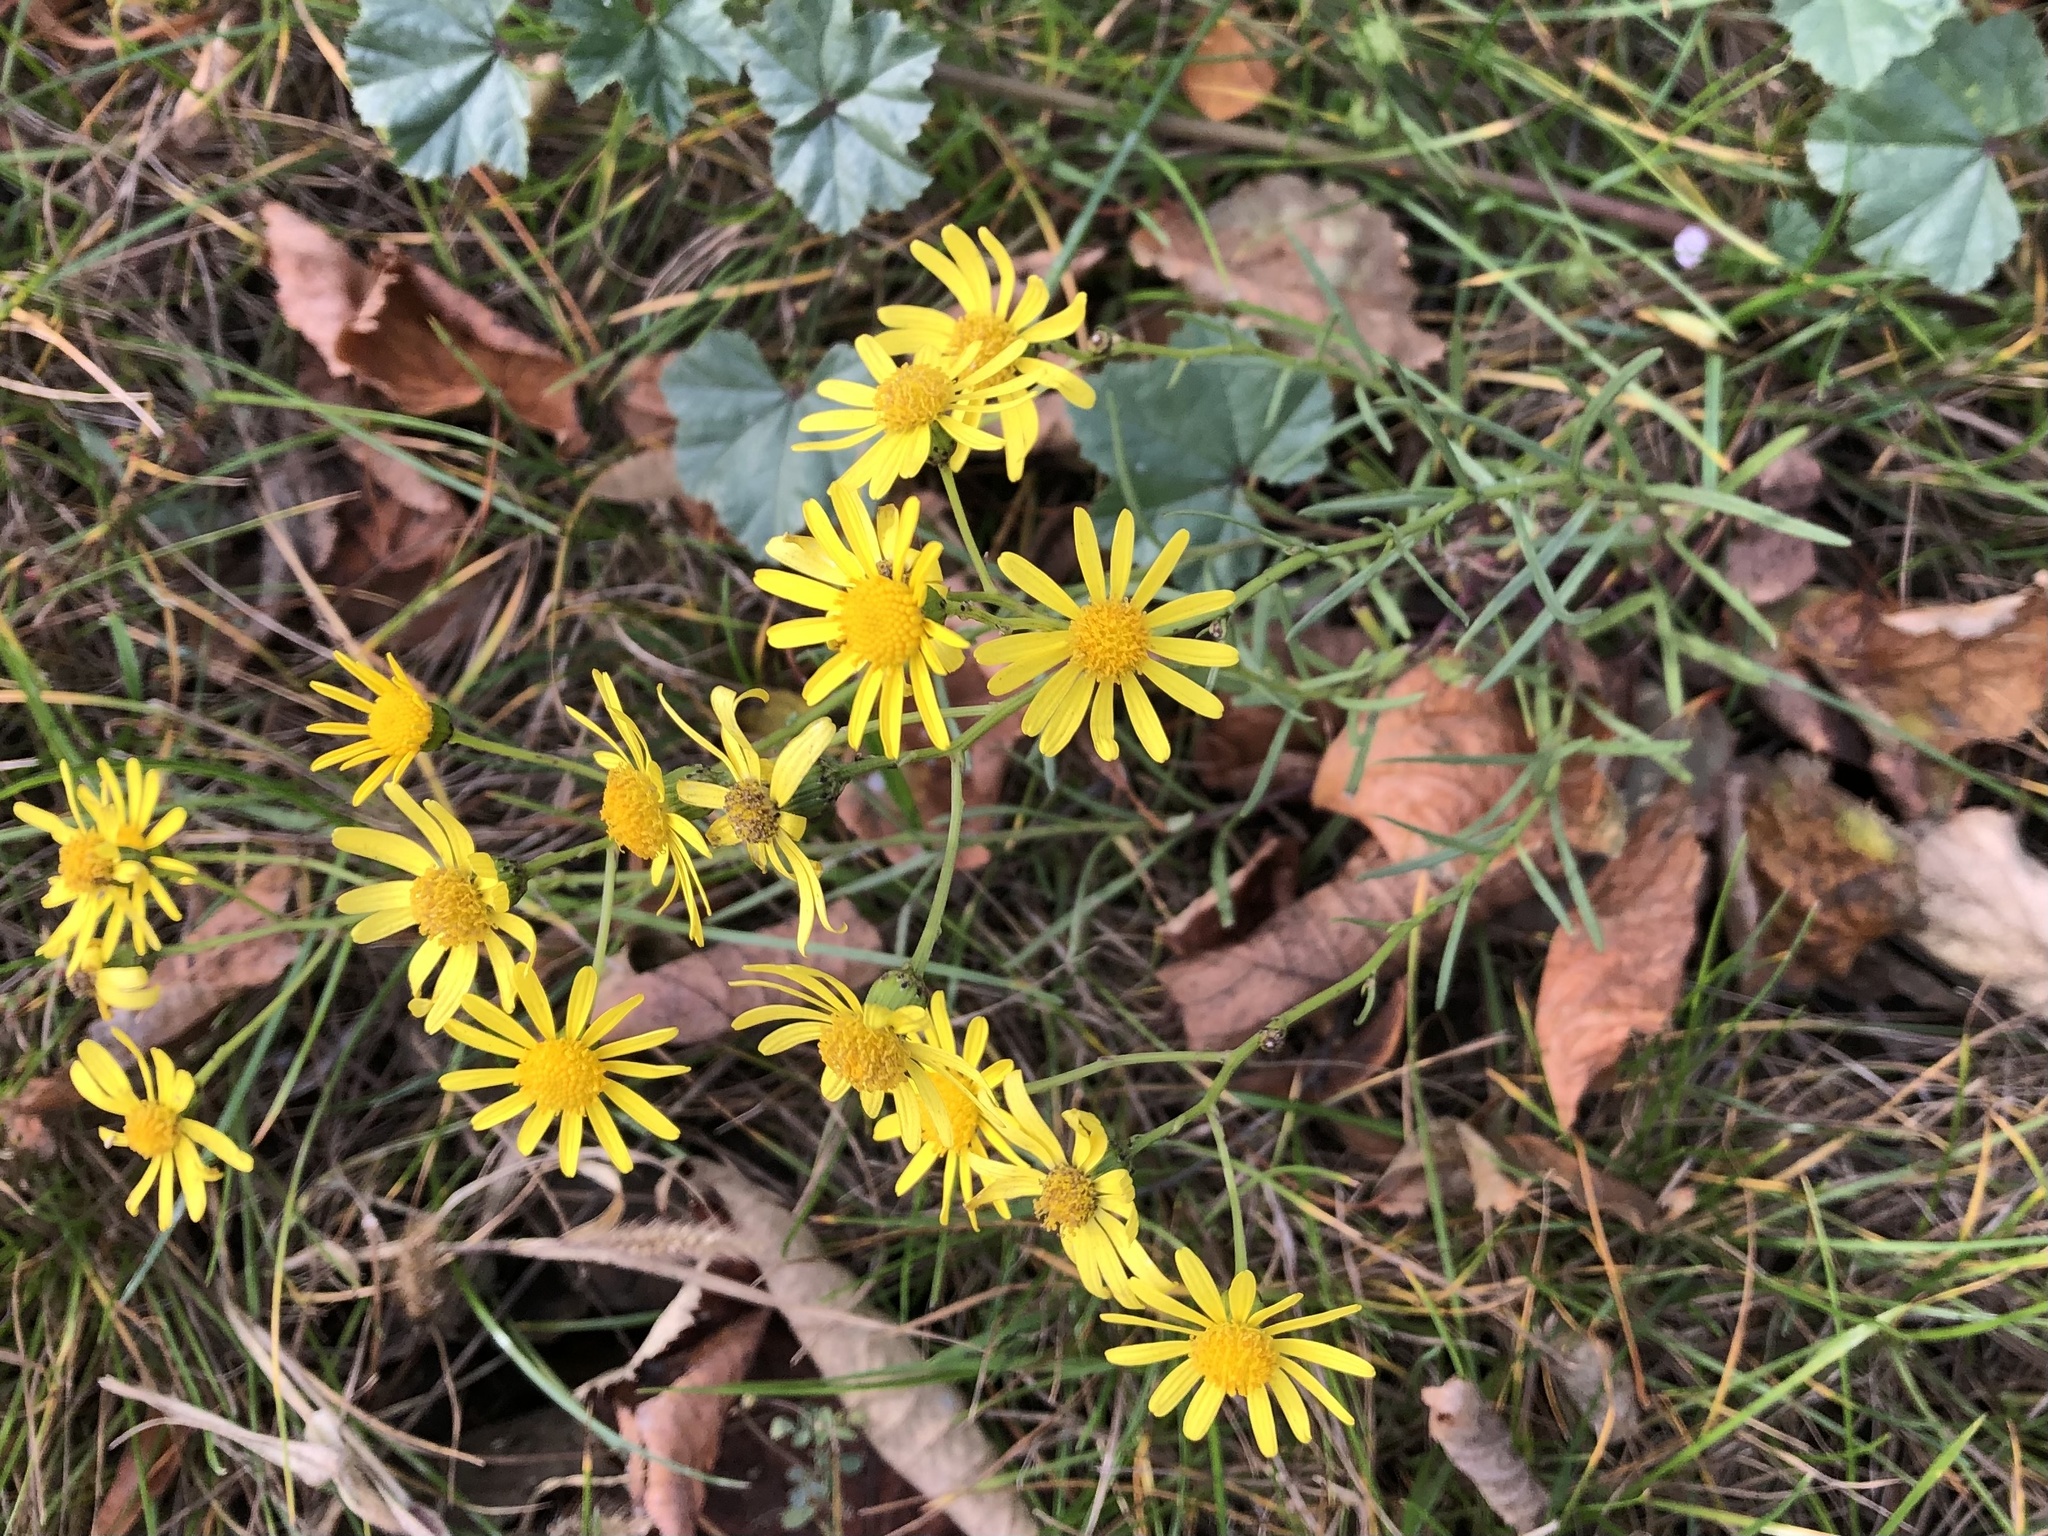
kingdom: Plantae
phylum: Tracheophyta
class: Magnoliopsida
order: Asterales
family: Asteraceae
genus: Senecio
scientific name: Senecio inaequidens
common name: Narrow-leaved ragwort
